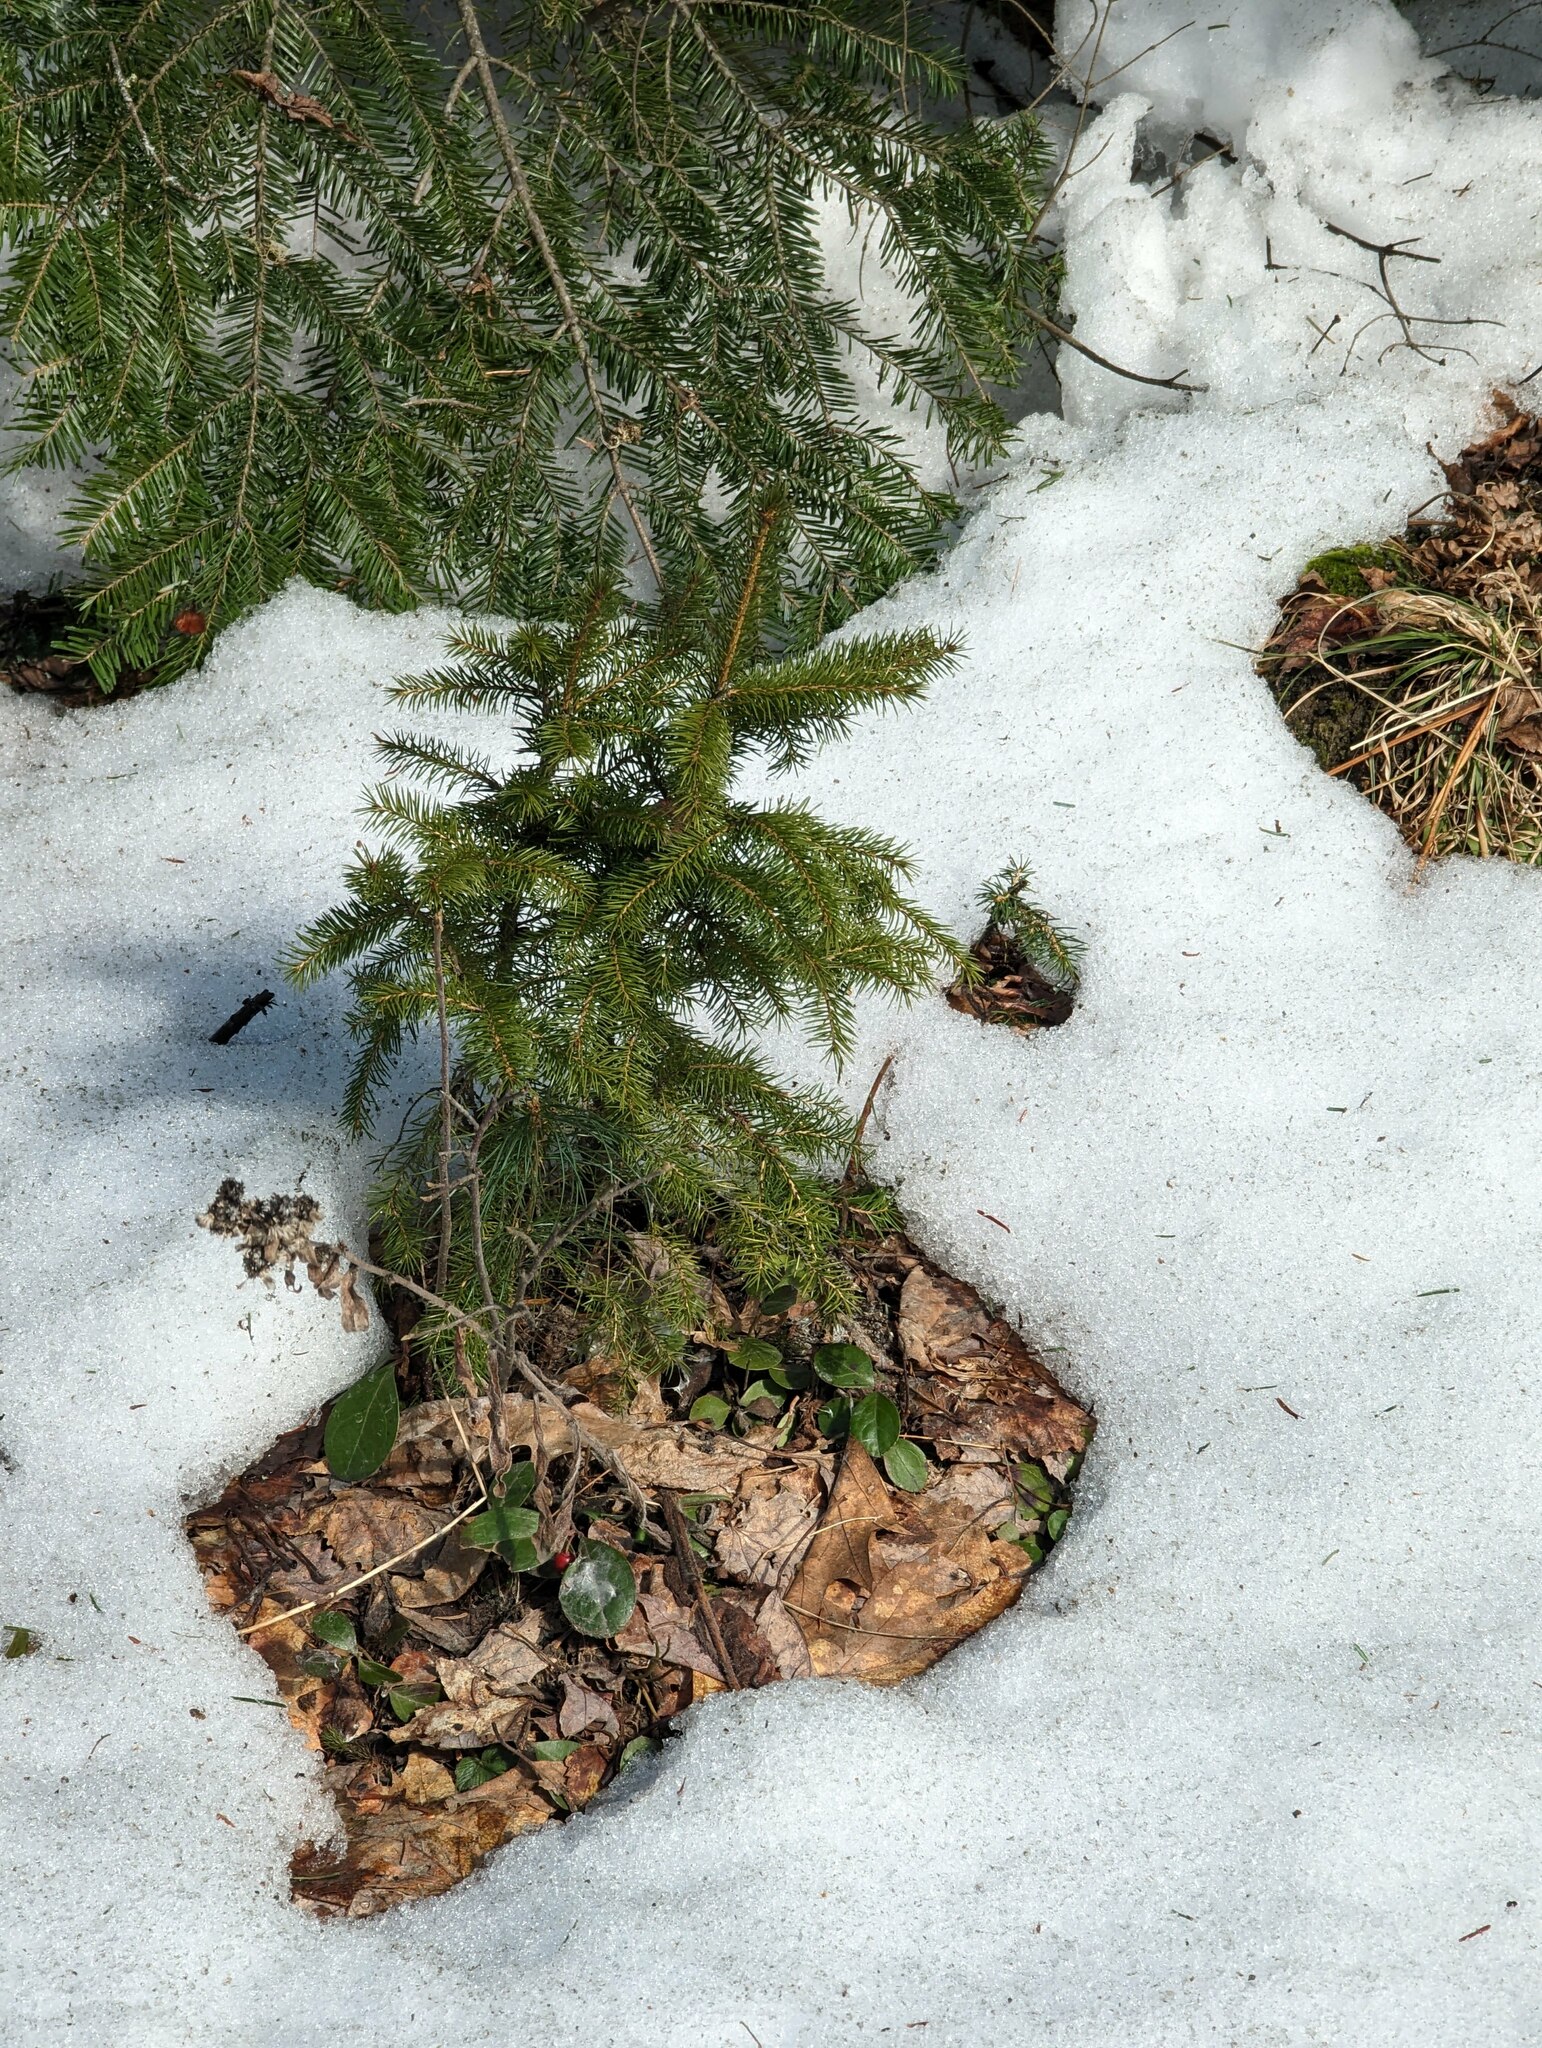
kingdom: Plantae
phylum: Tracheophyta
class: Pinopsida
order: Pinales
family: Pinaceae
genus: Picea
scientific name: Picea rubens
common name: Red spruce
